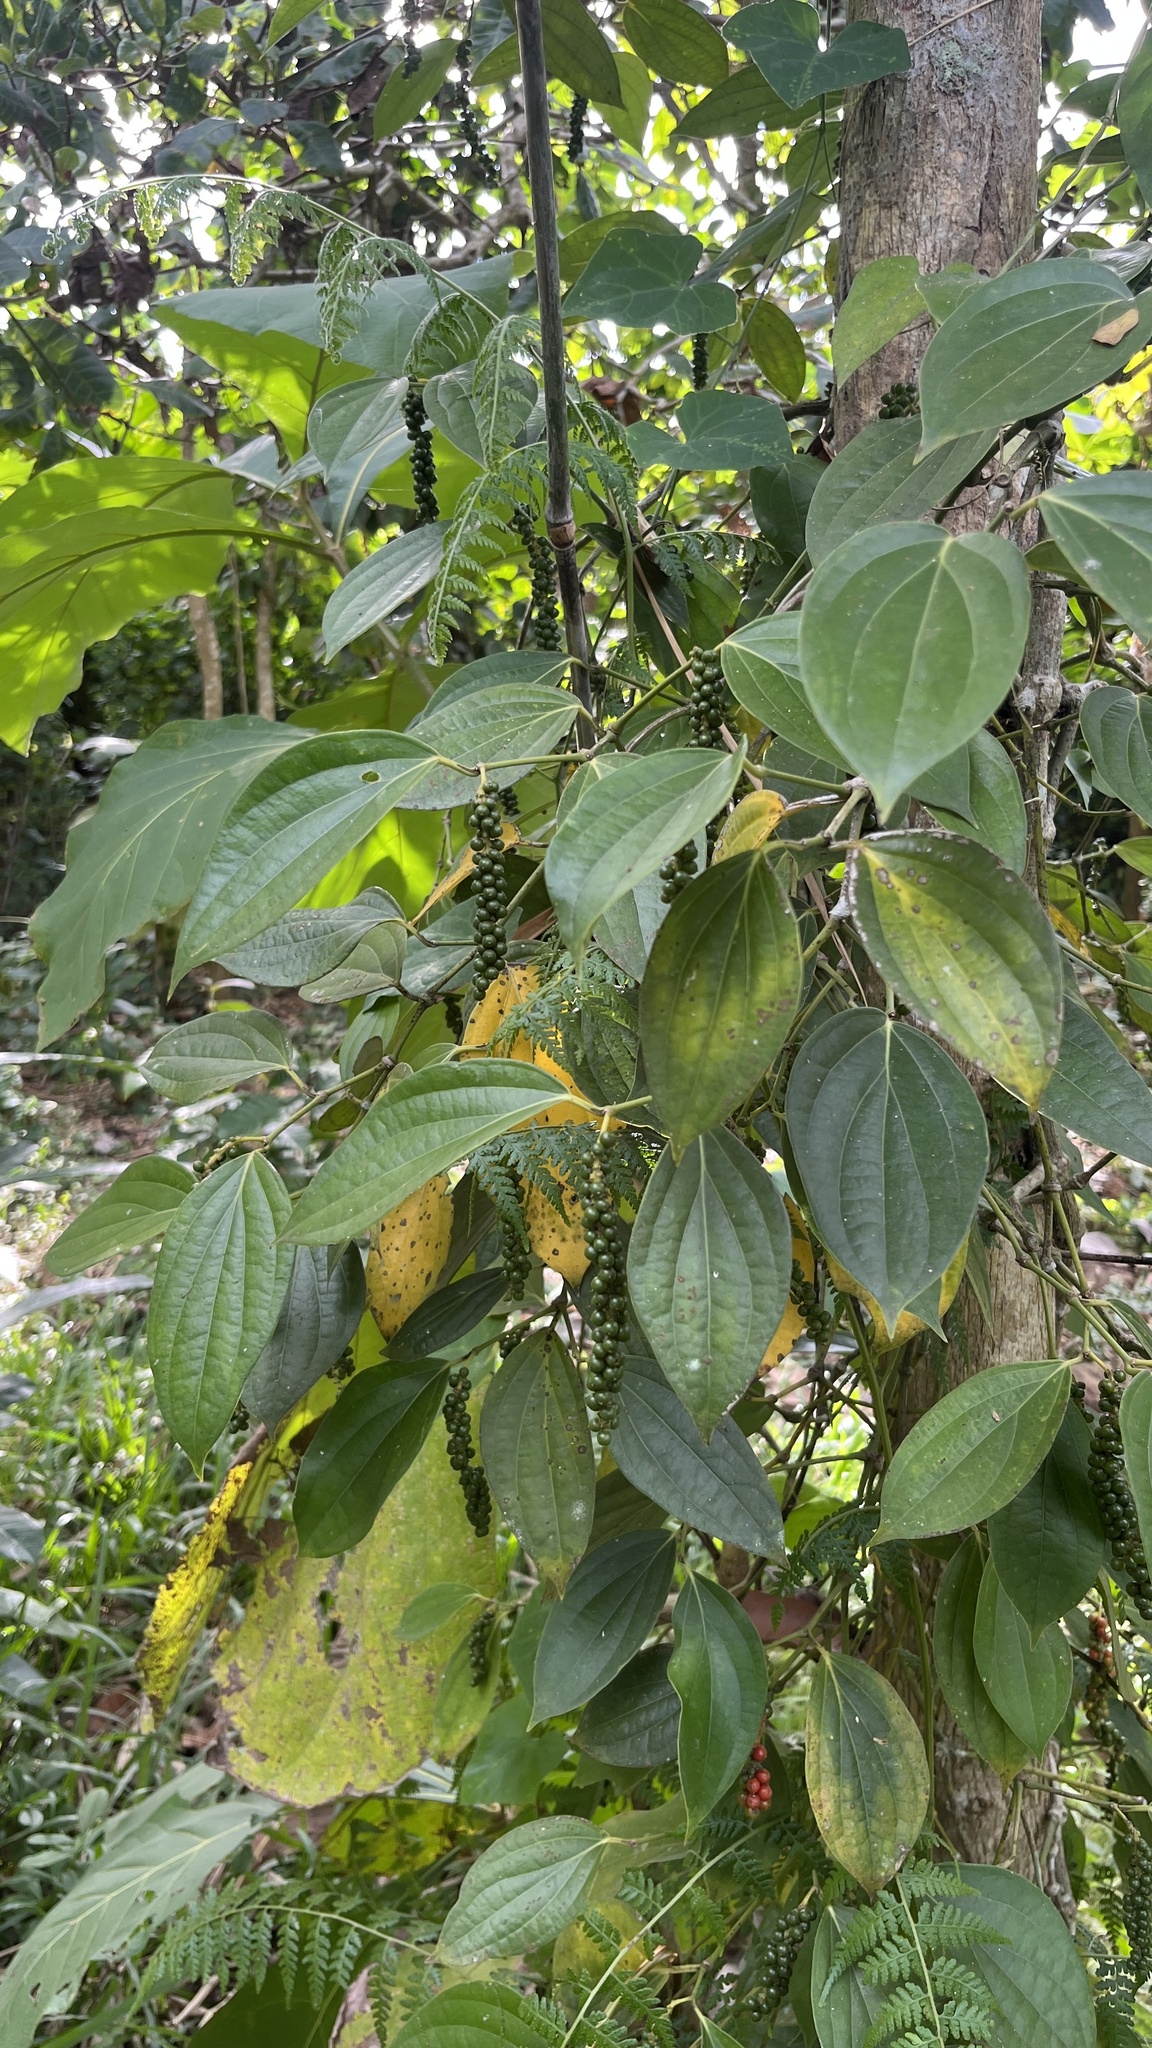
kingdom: Plantae
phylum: Tracheophyta
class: Magnoliopsida
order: Piperales
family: Piperaceae
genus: Piper
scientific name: Piper nigrum
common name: Black pepper
